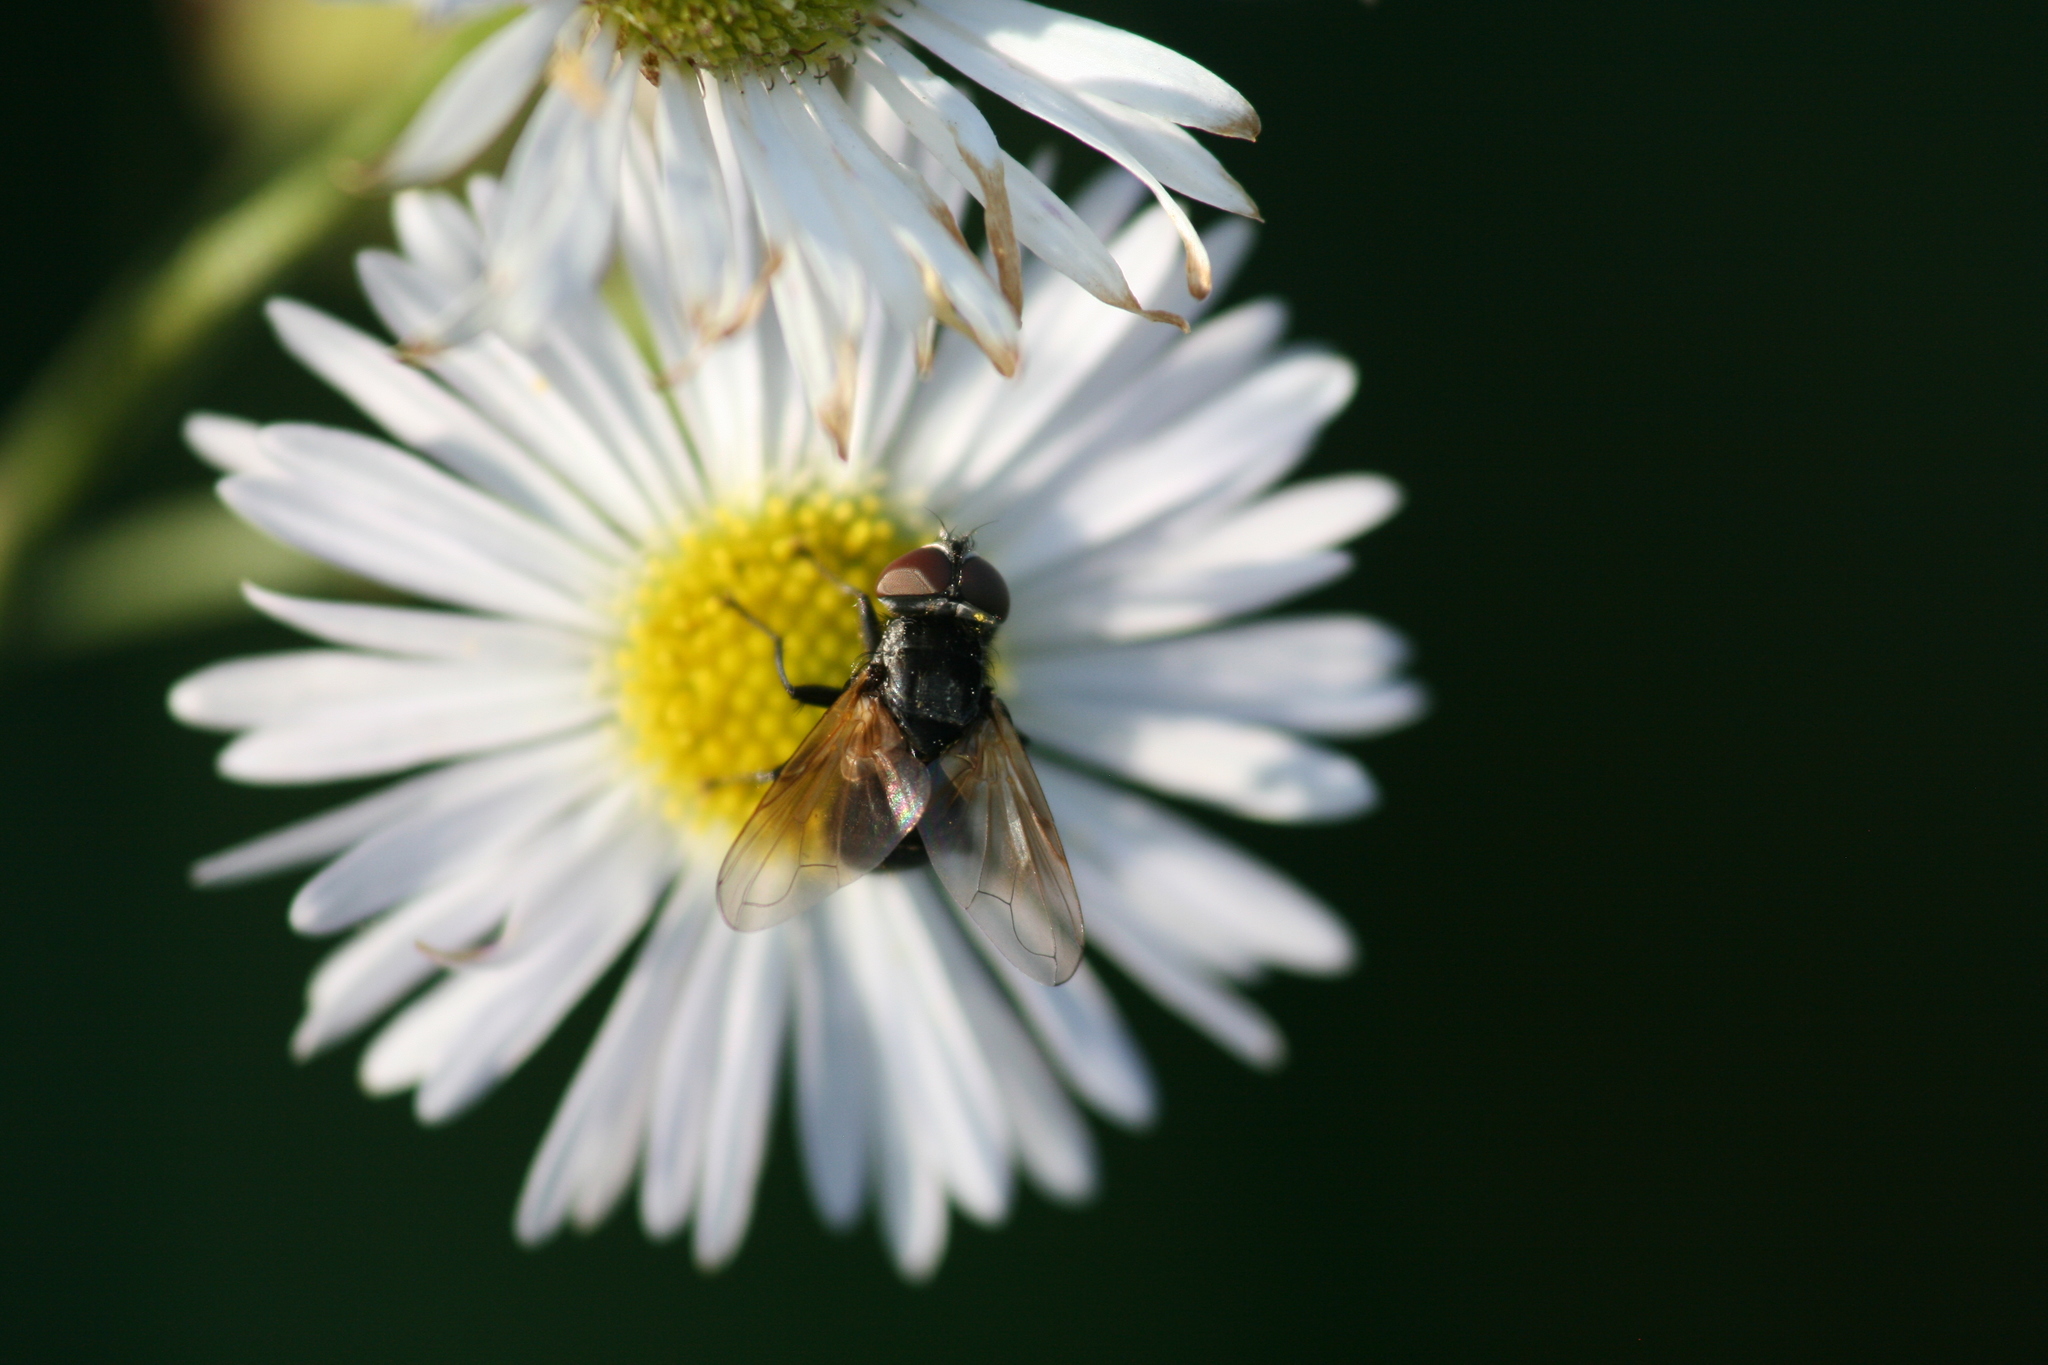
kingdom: Animalia
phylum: Arthropoda
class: Insecta
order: Diptera
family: Tachinidae
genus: Phasia
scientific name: Phasia obesa
